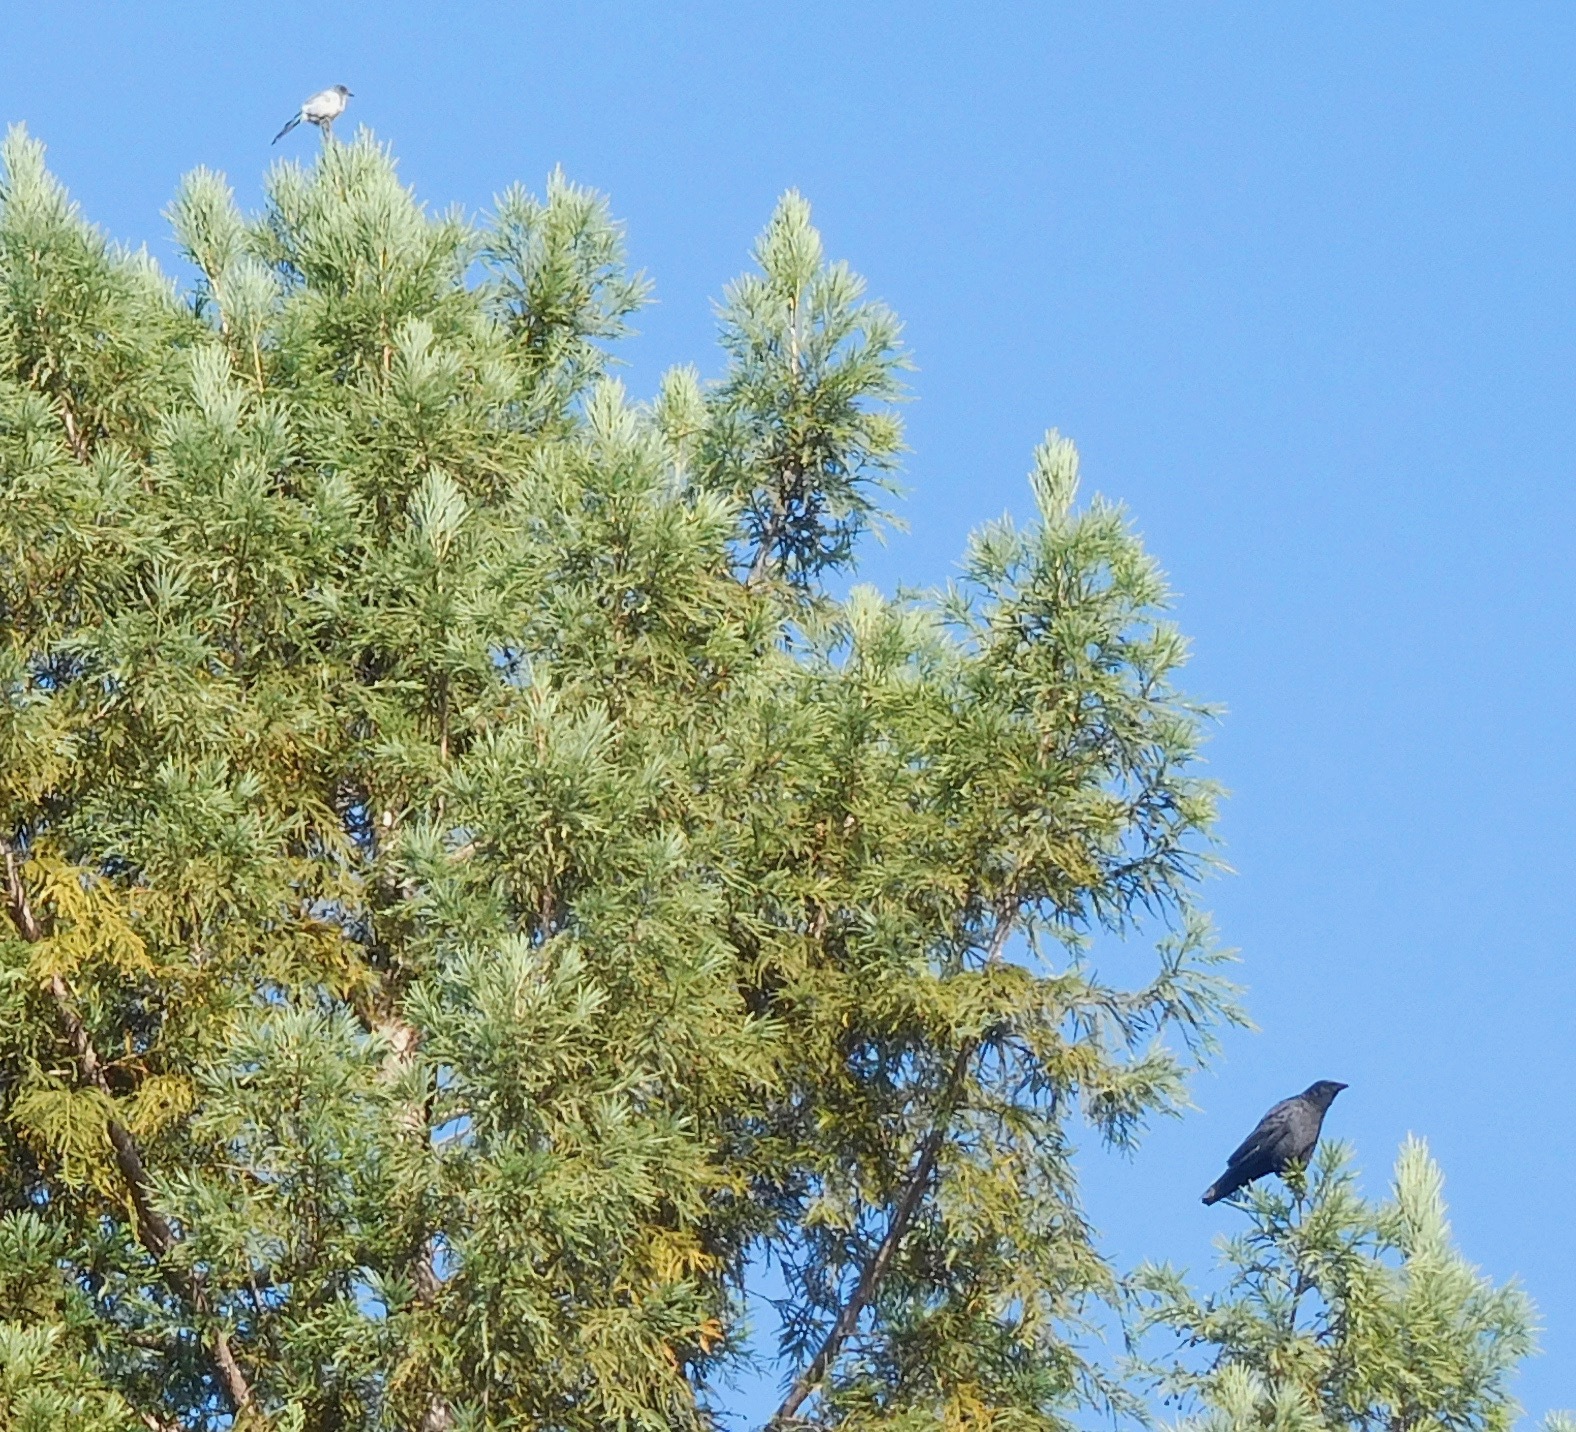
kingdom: Animalia
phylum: Chordata
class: Aves
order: Passeriformes
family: Corvidae
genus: Aphelocoma
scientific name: Aphelocoma californica
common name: California scrub-jay
